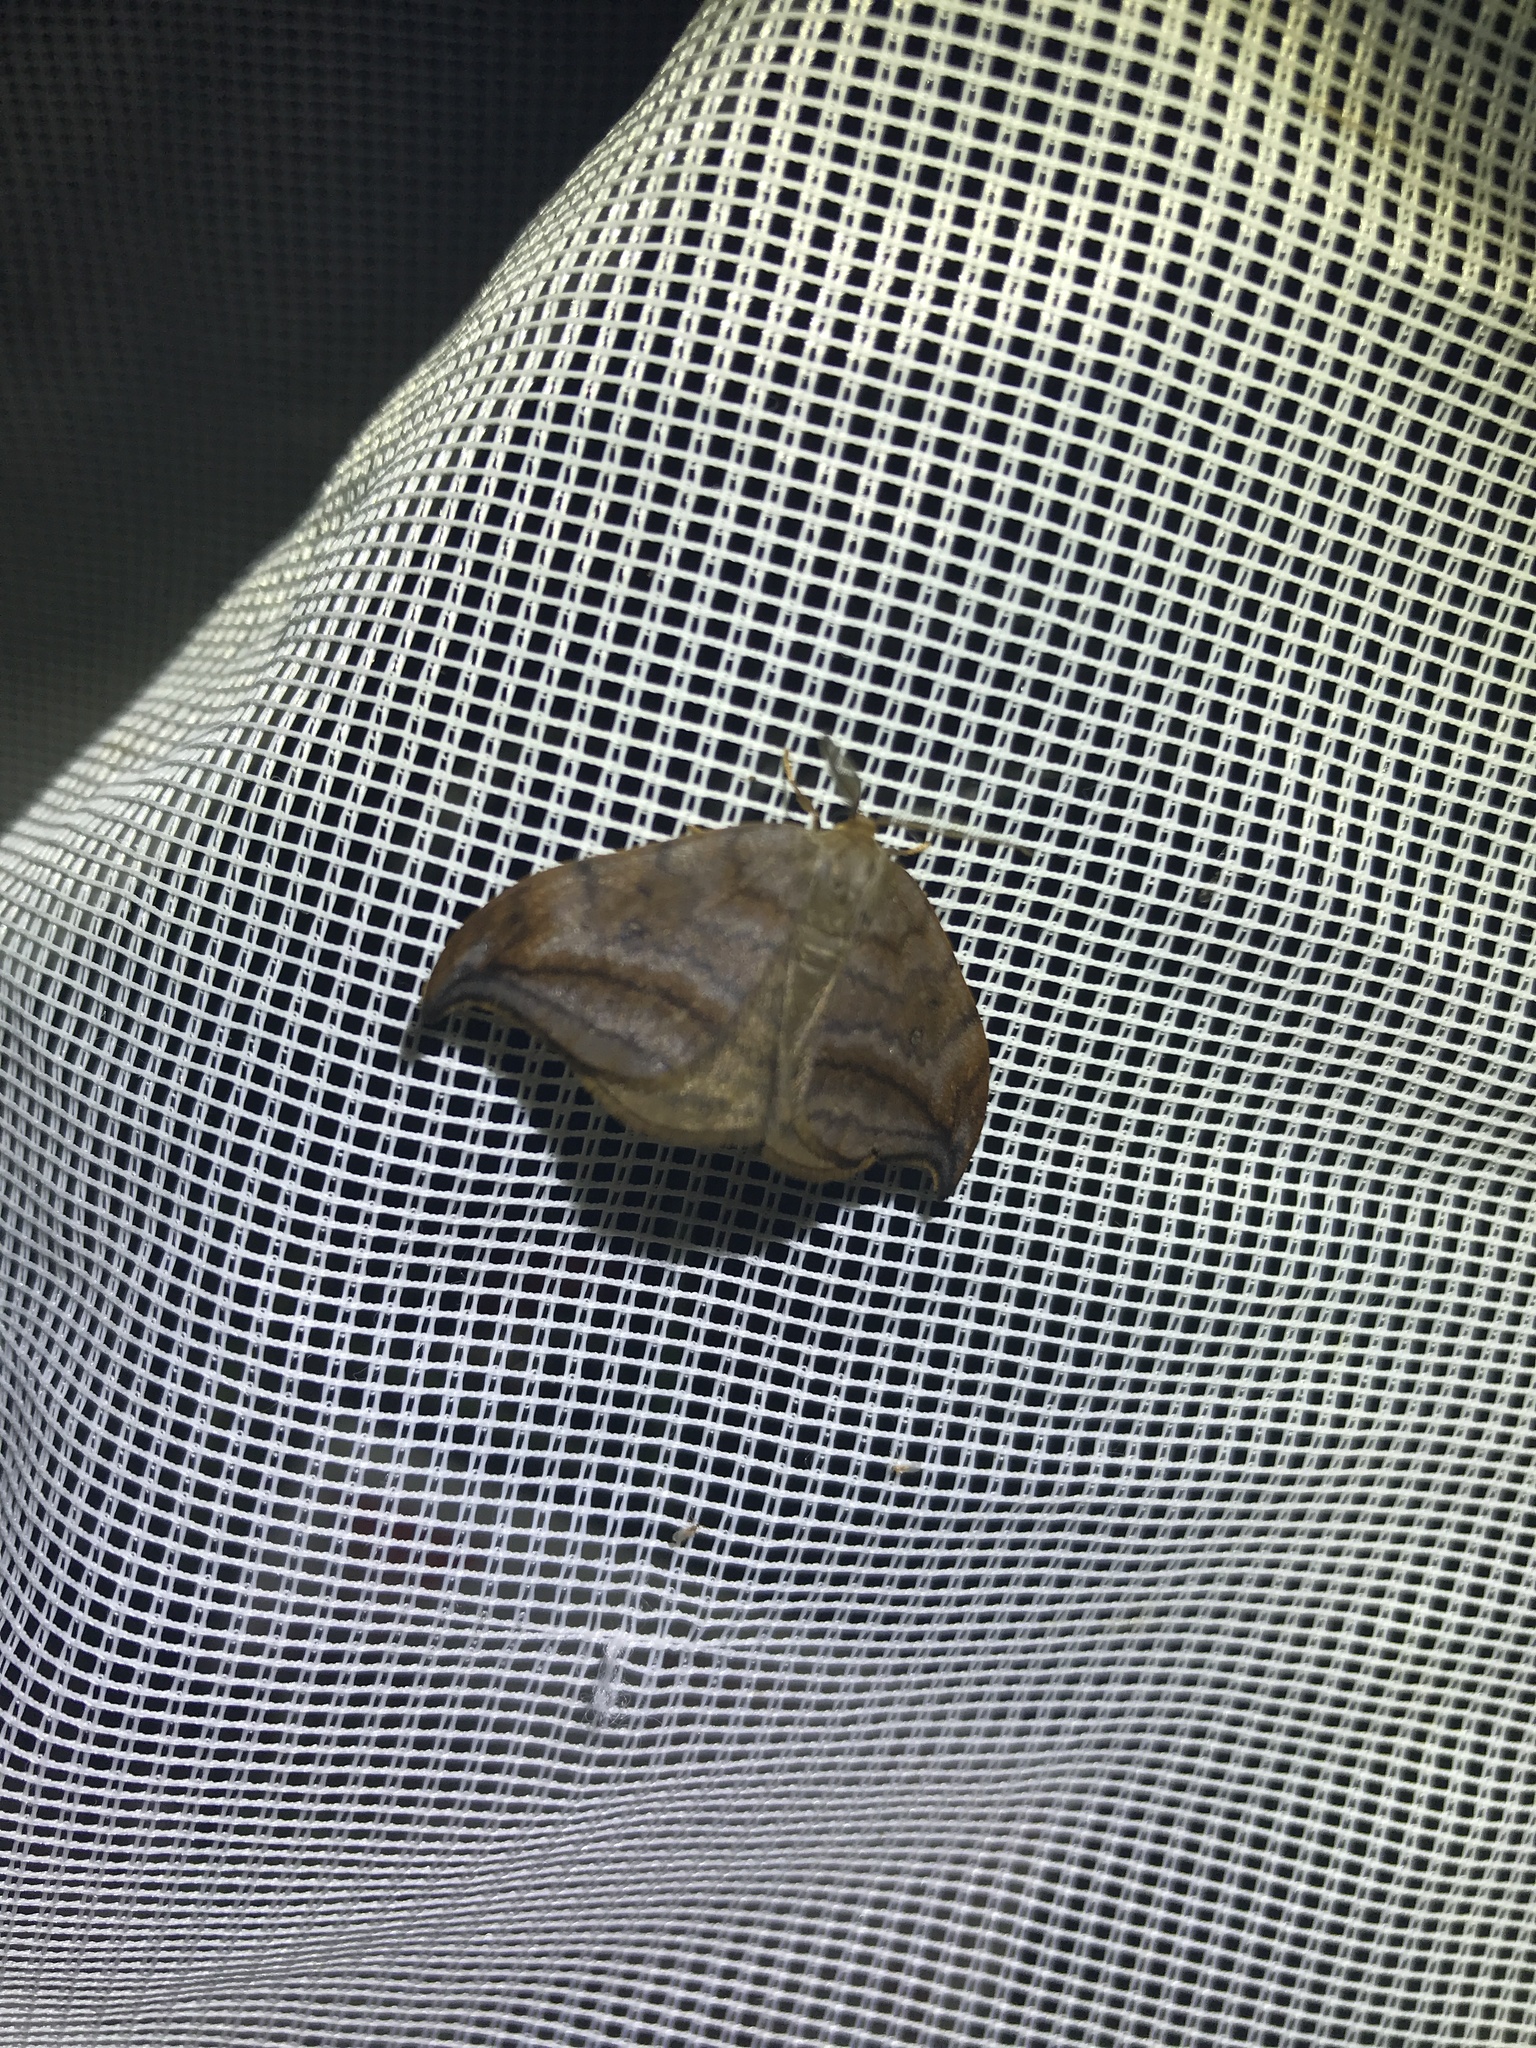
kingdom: Animalia
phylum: Arthropoda
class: Insecta
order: Lepidoptera
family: Drepanidae
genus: Drepana
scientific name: Drepana curvatula
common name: Dusky hook-tip
